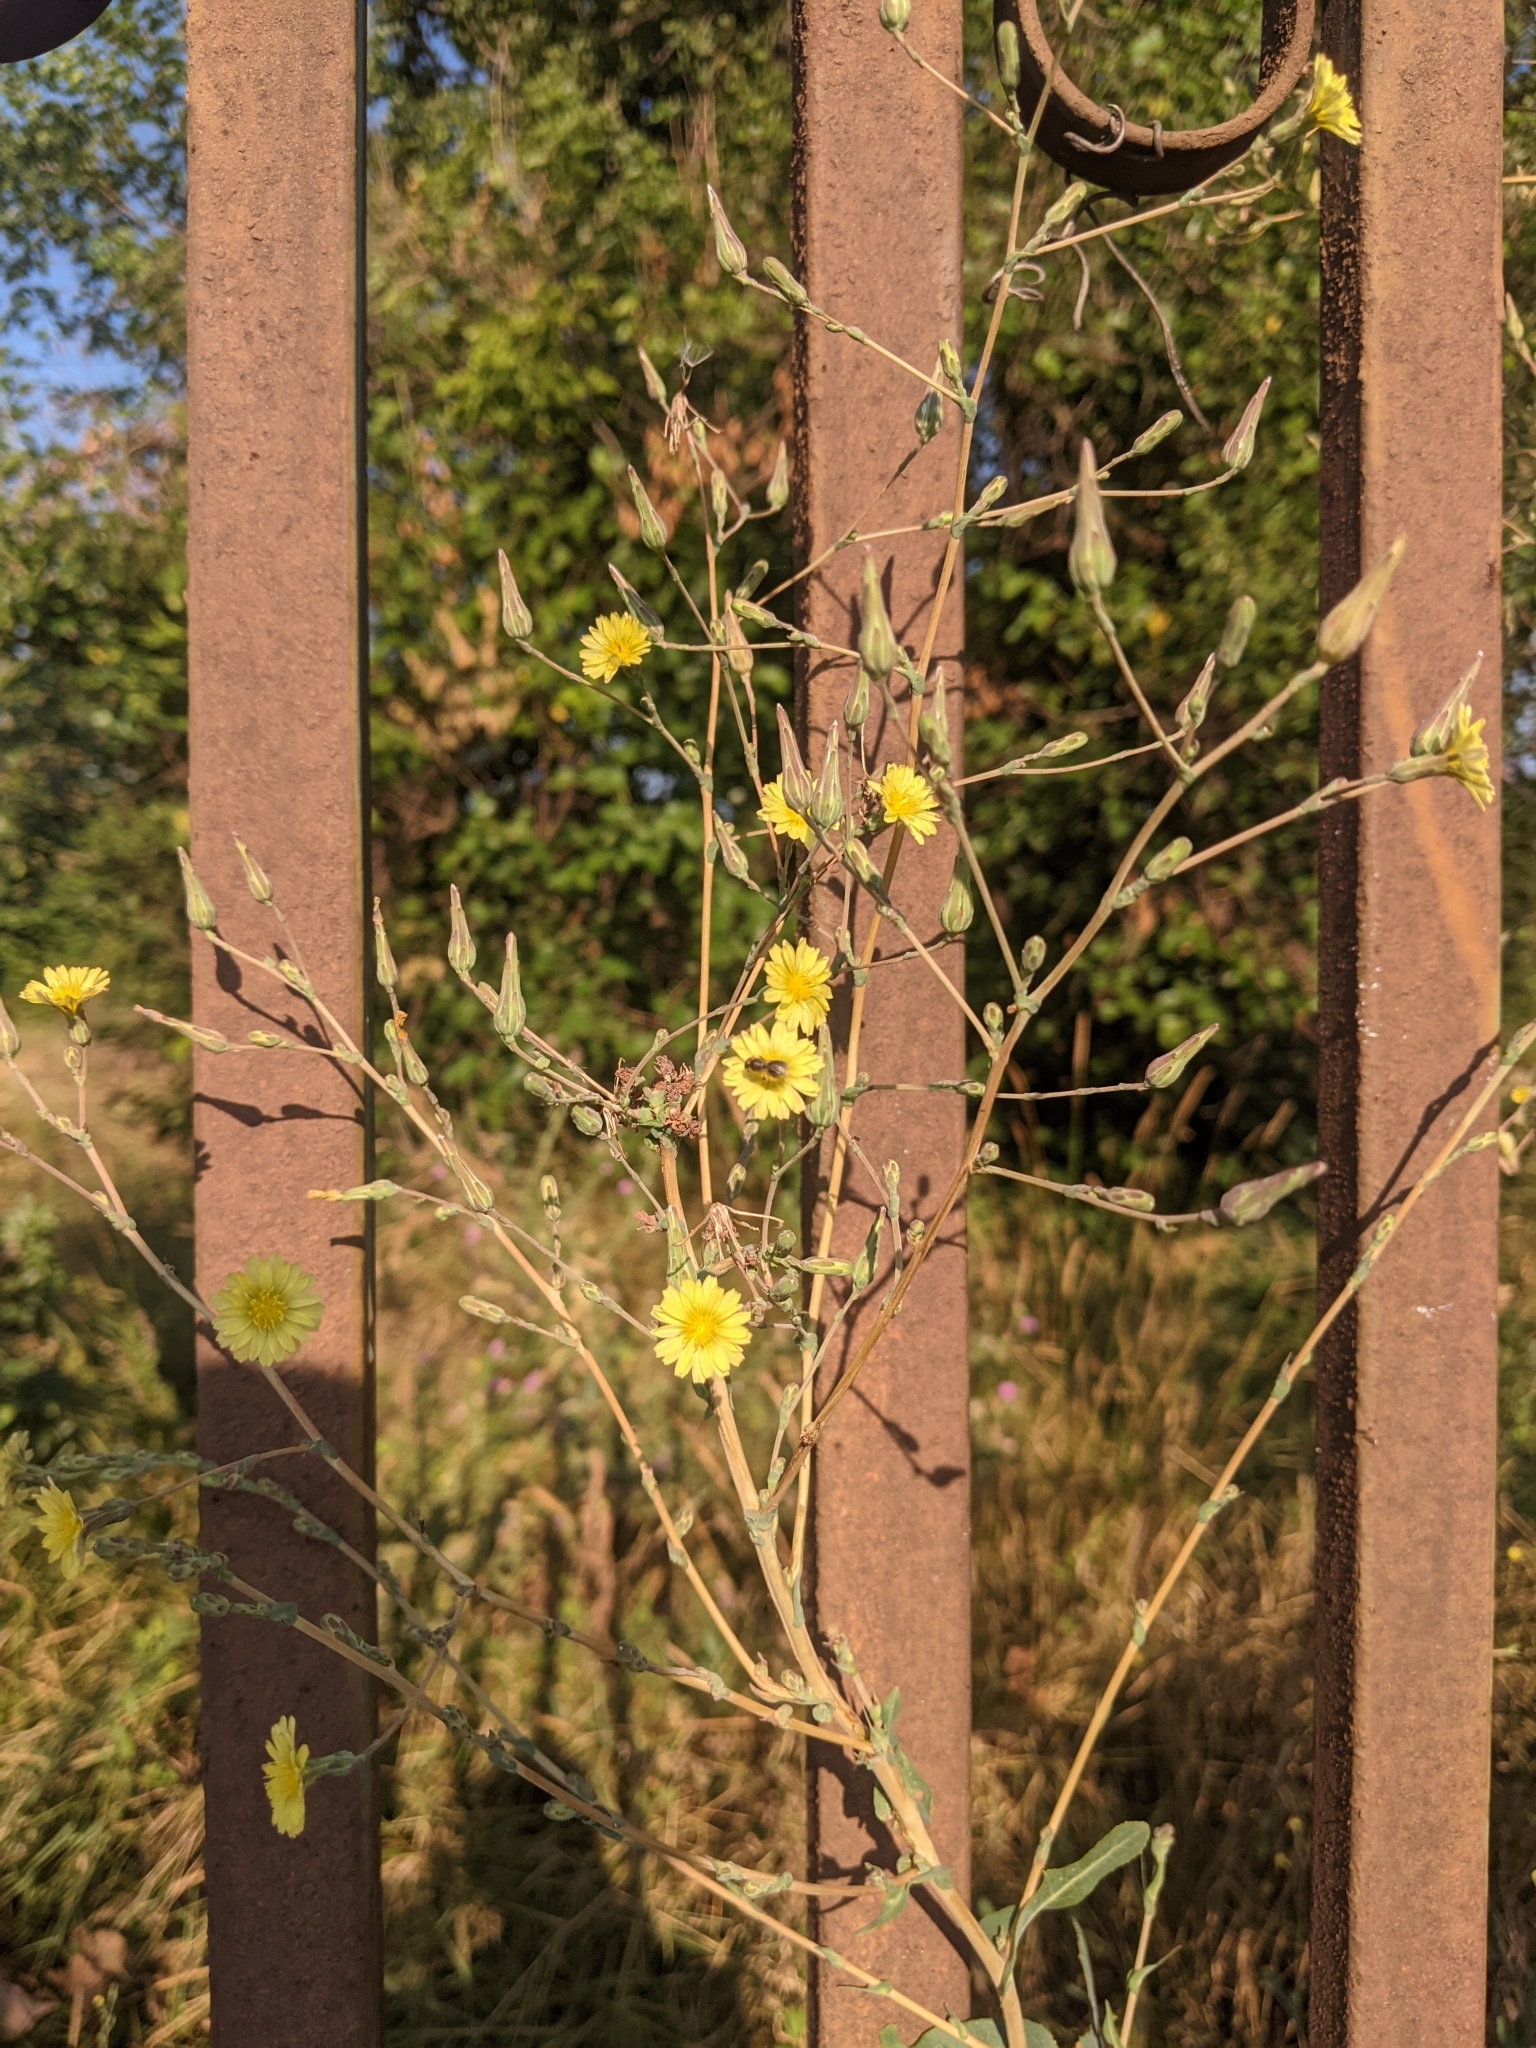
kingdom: Plantae
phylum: Tracheophyta
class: Magnoliopsida
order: Asterales
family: Asteraceae
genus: Lactuca
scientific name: Lactuca serriola
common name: Prickly lettuce
